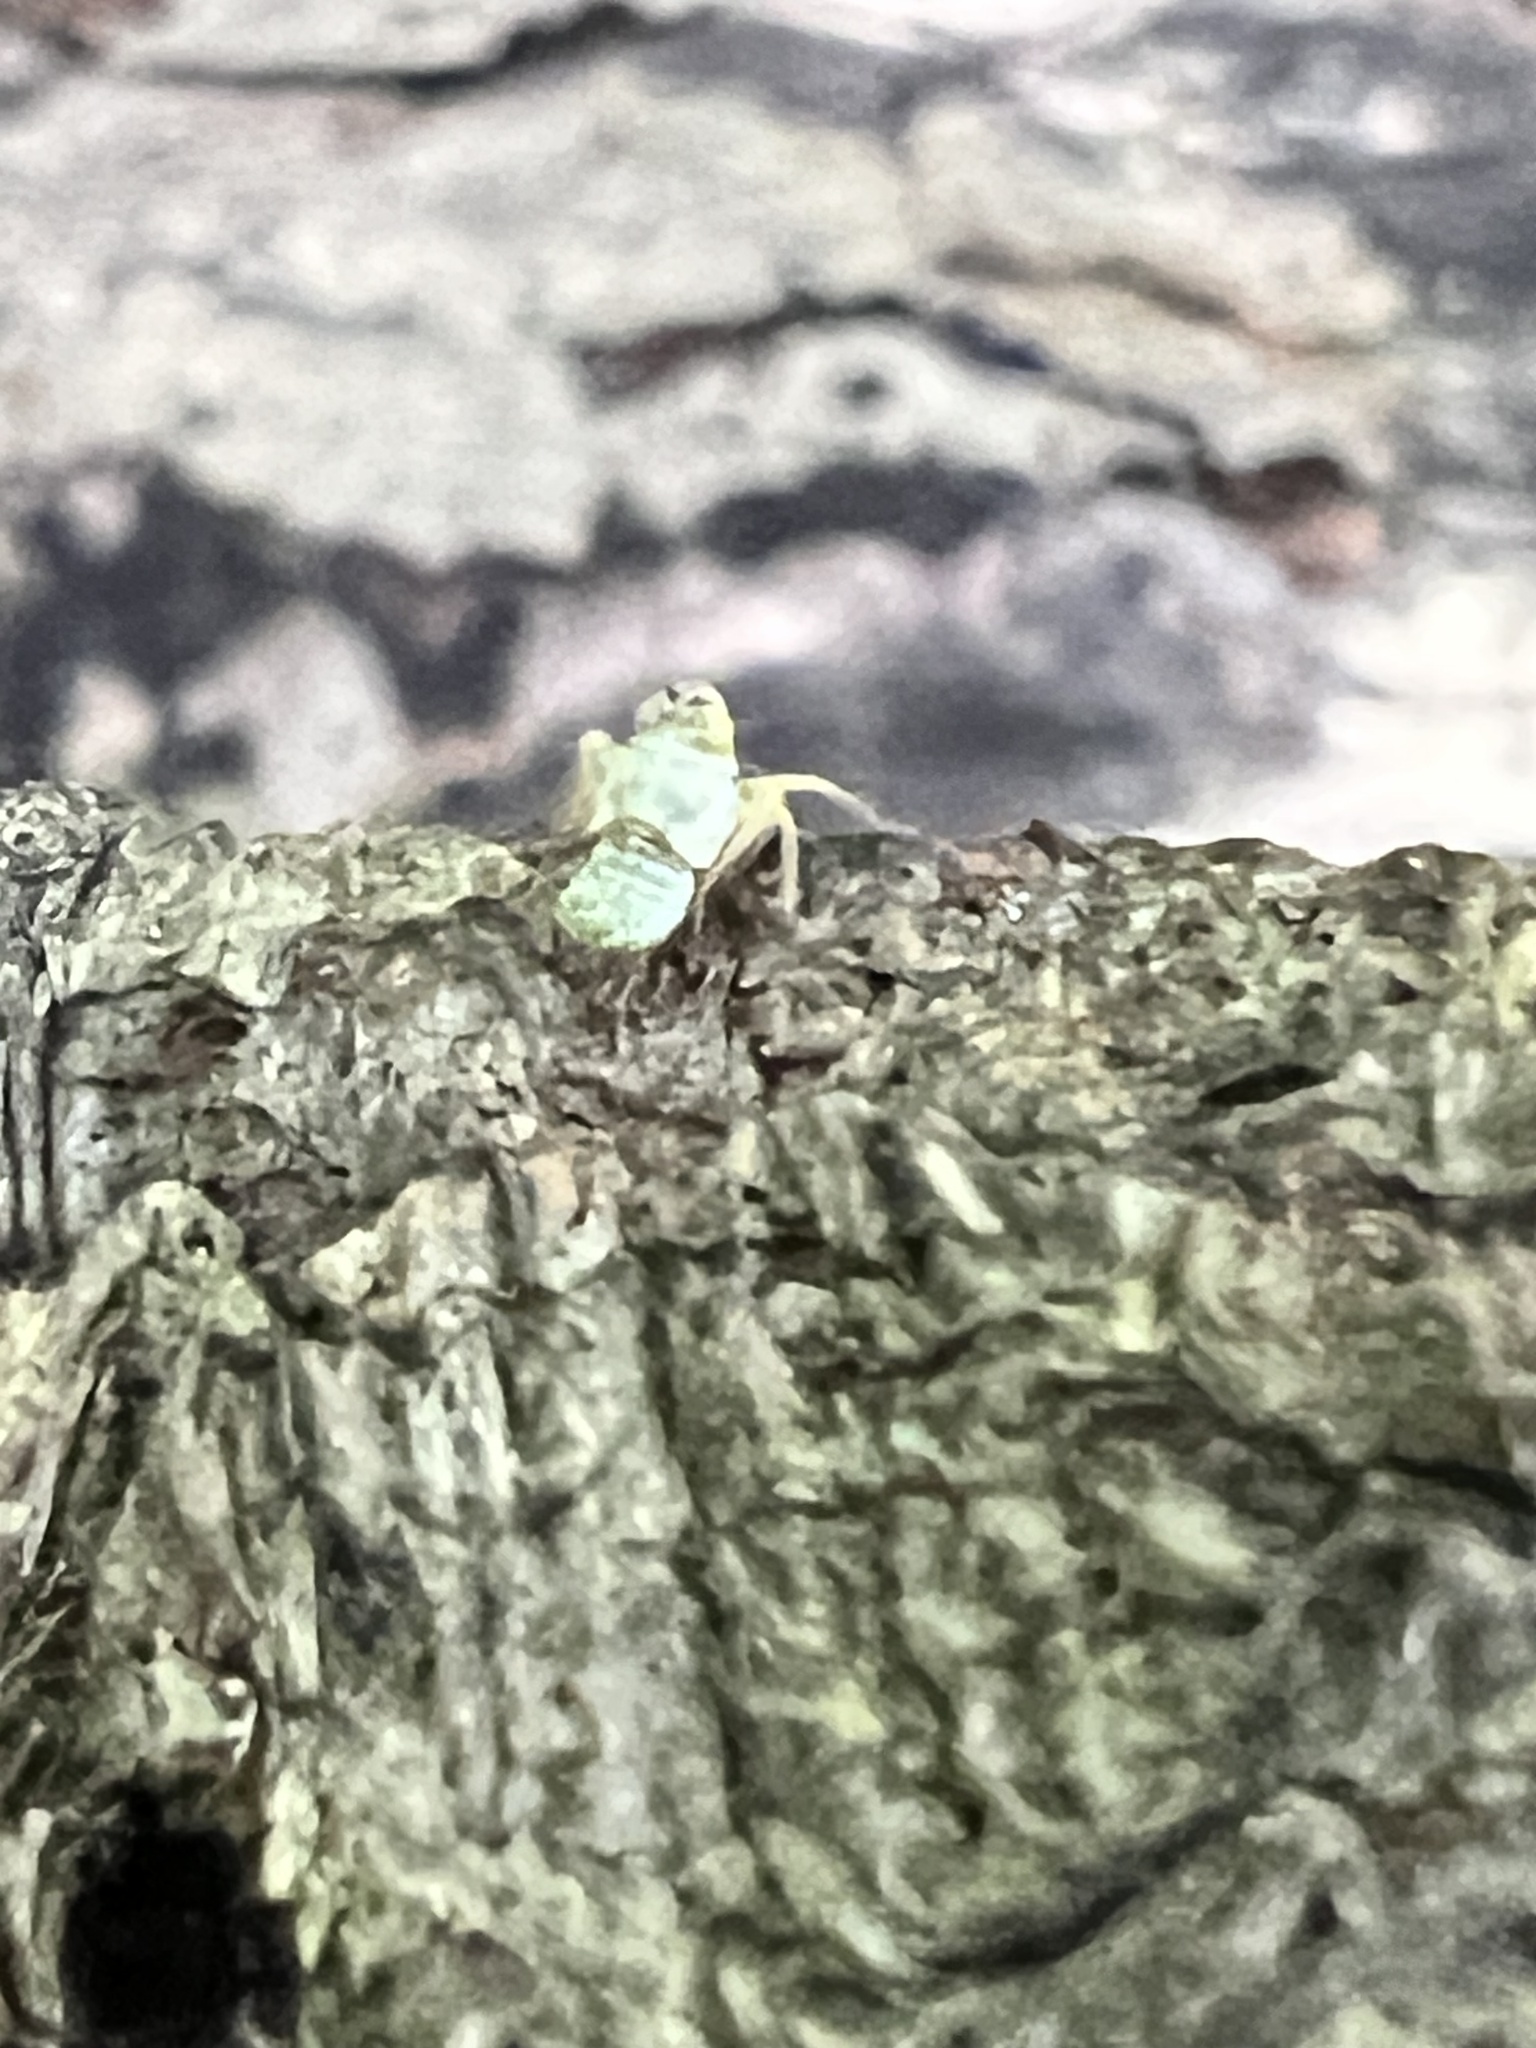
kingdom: Animalia
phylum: Arthropoda
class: Insecta
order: Hemiptera
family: Cicadellidae
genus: Jikradia
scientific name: Jikradia olitoria
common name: Coppery leafhopper
